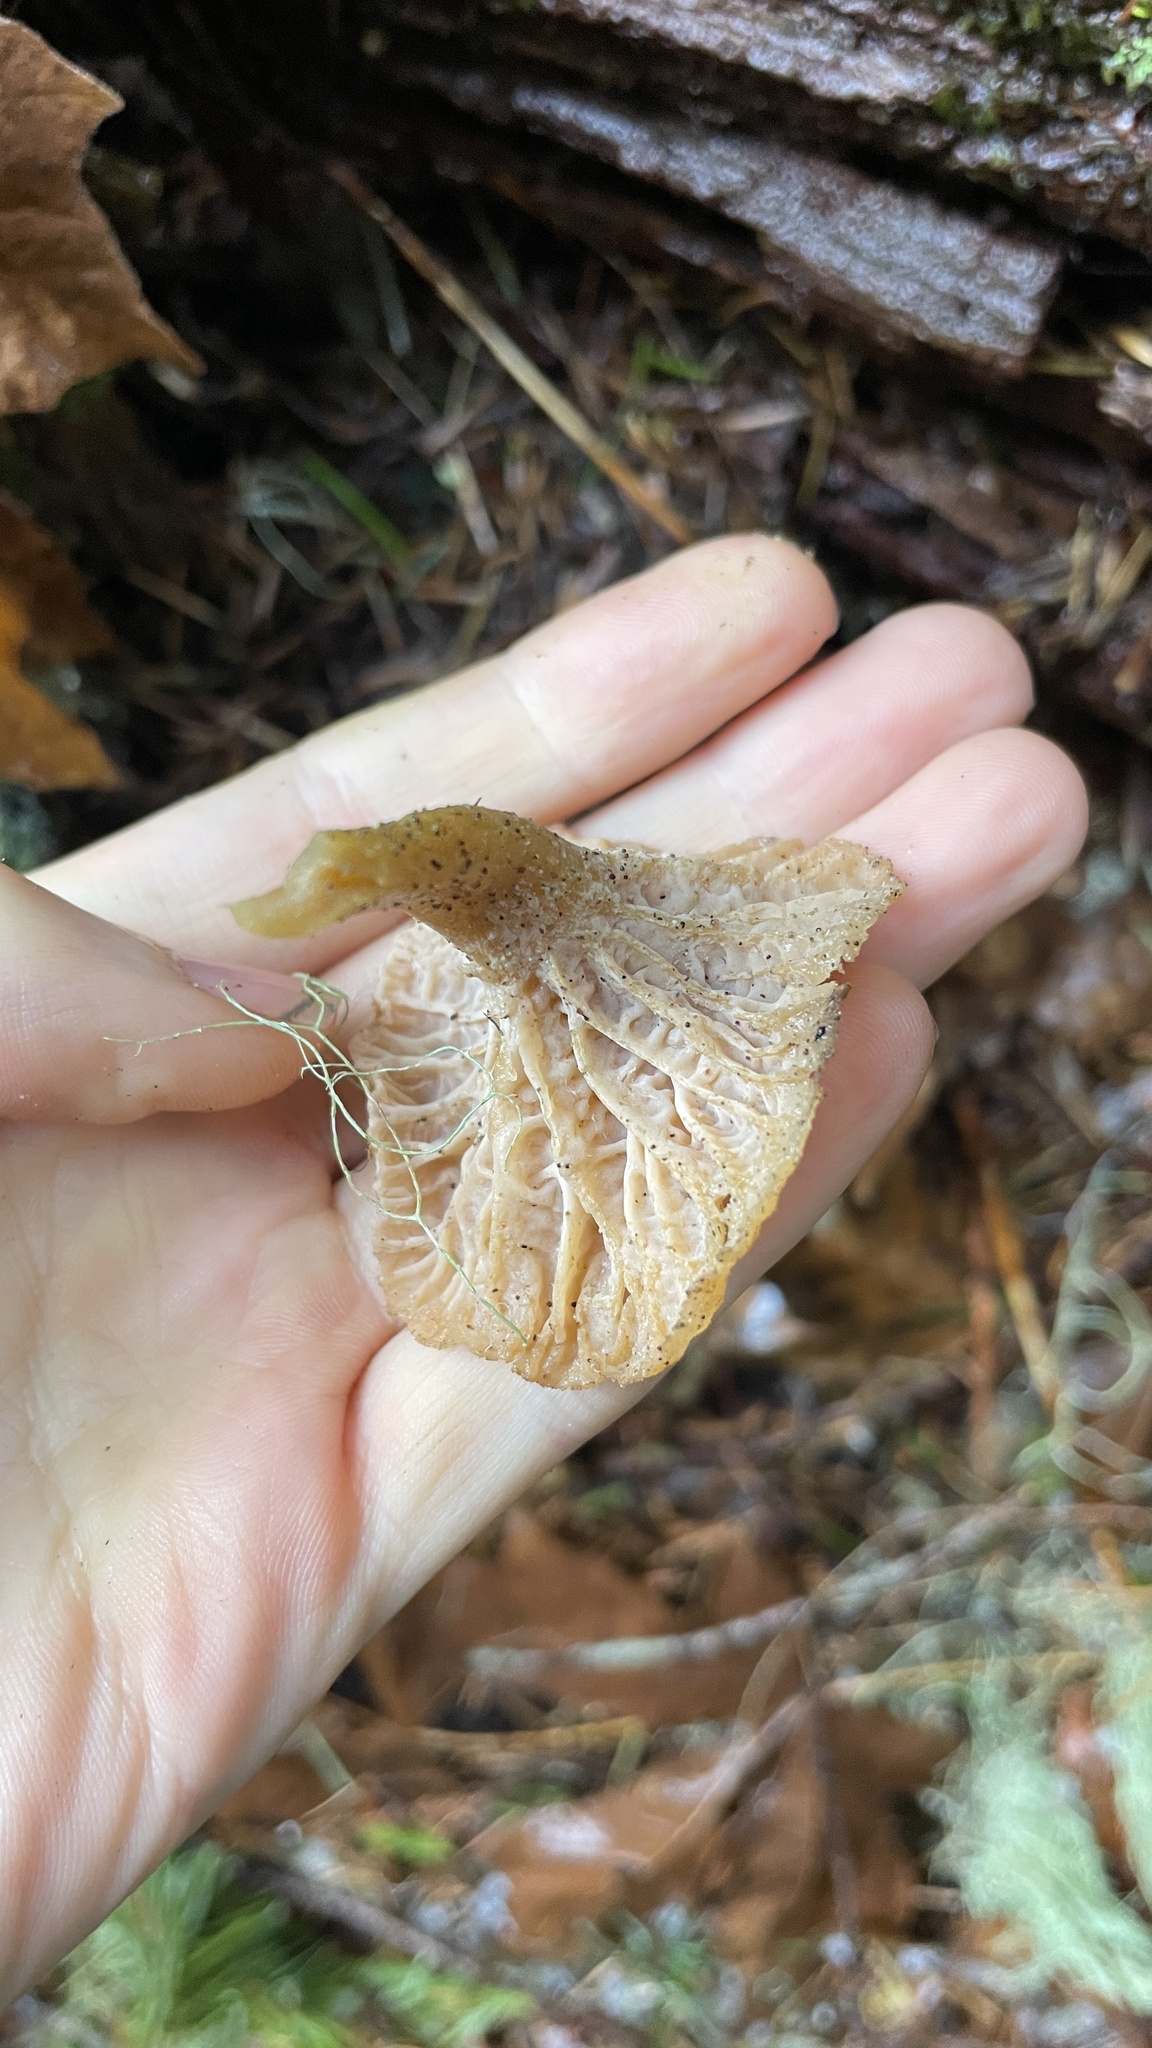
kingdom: Fungi
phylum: Basidiomycota
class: Agaricomycetes
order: Cantharellales
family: Hydnaceae
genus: Craterellus
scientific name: Craterellus tubaeformis
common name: Yellowfoot
